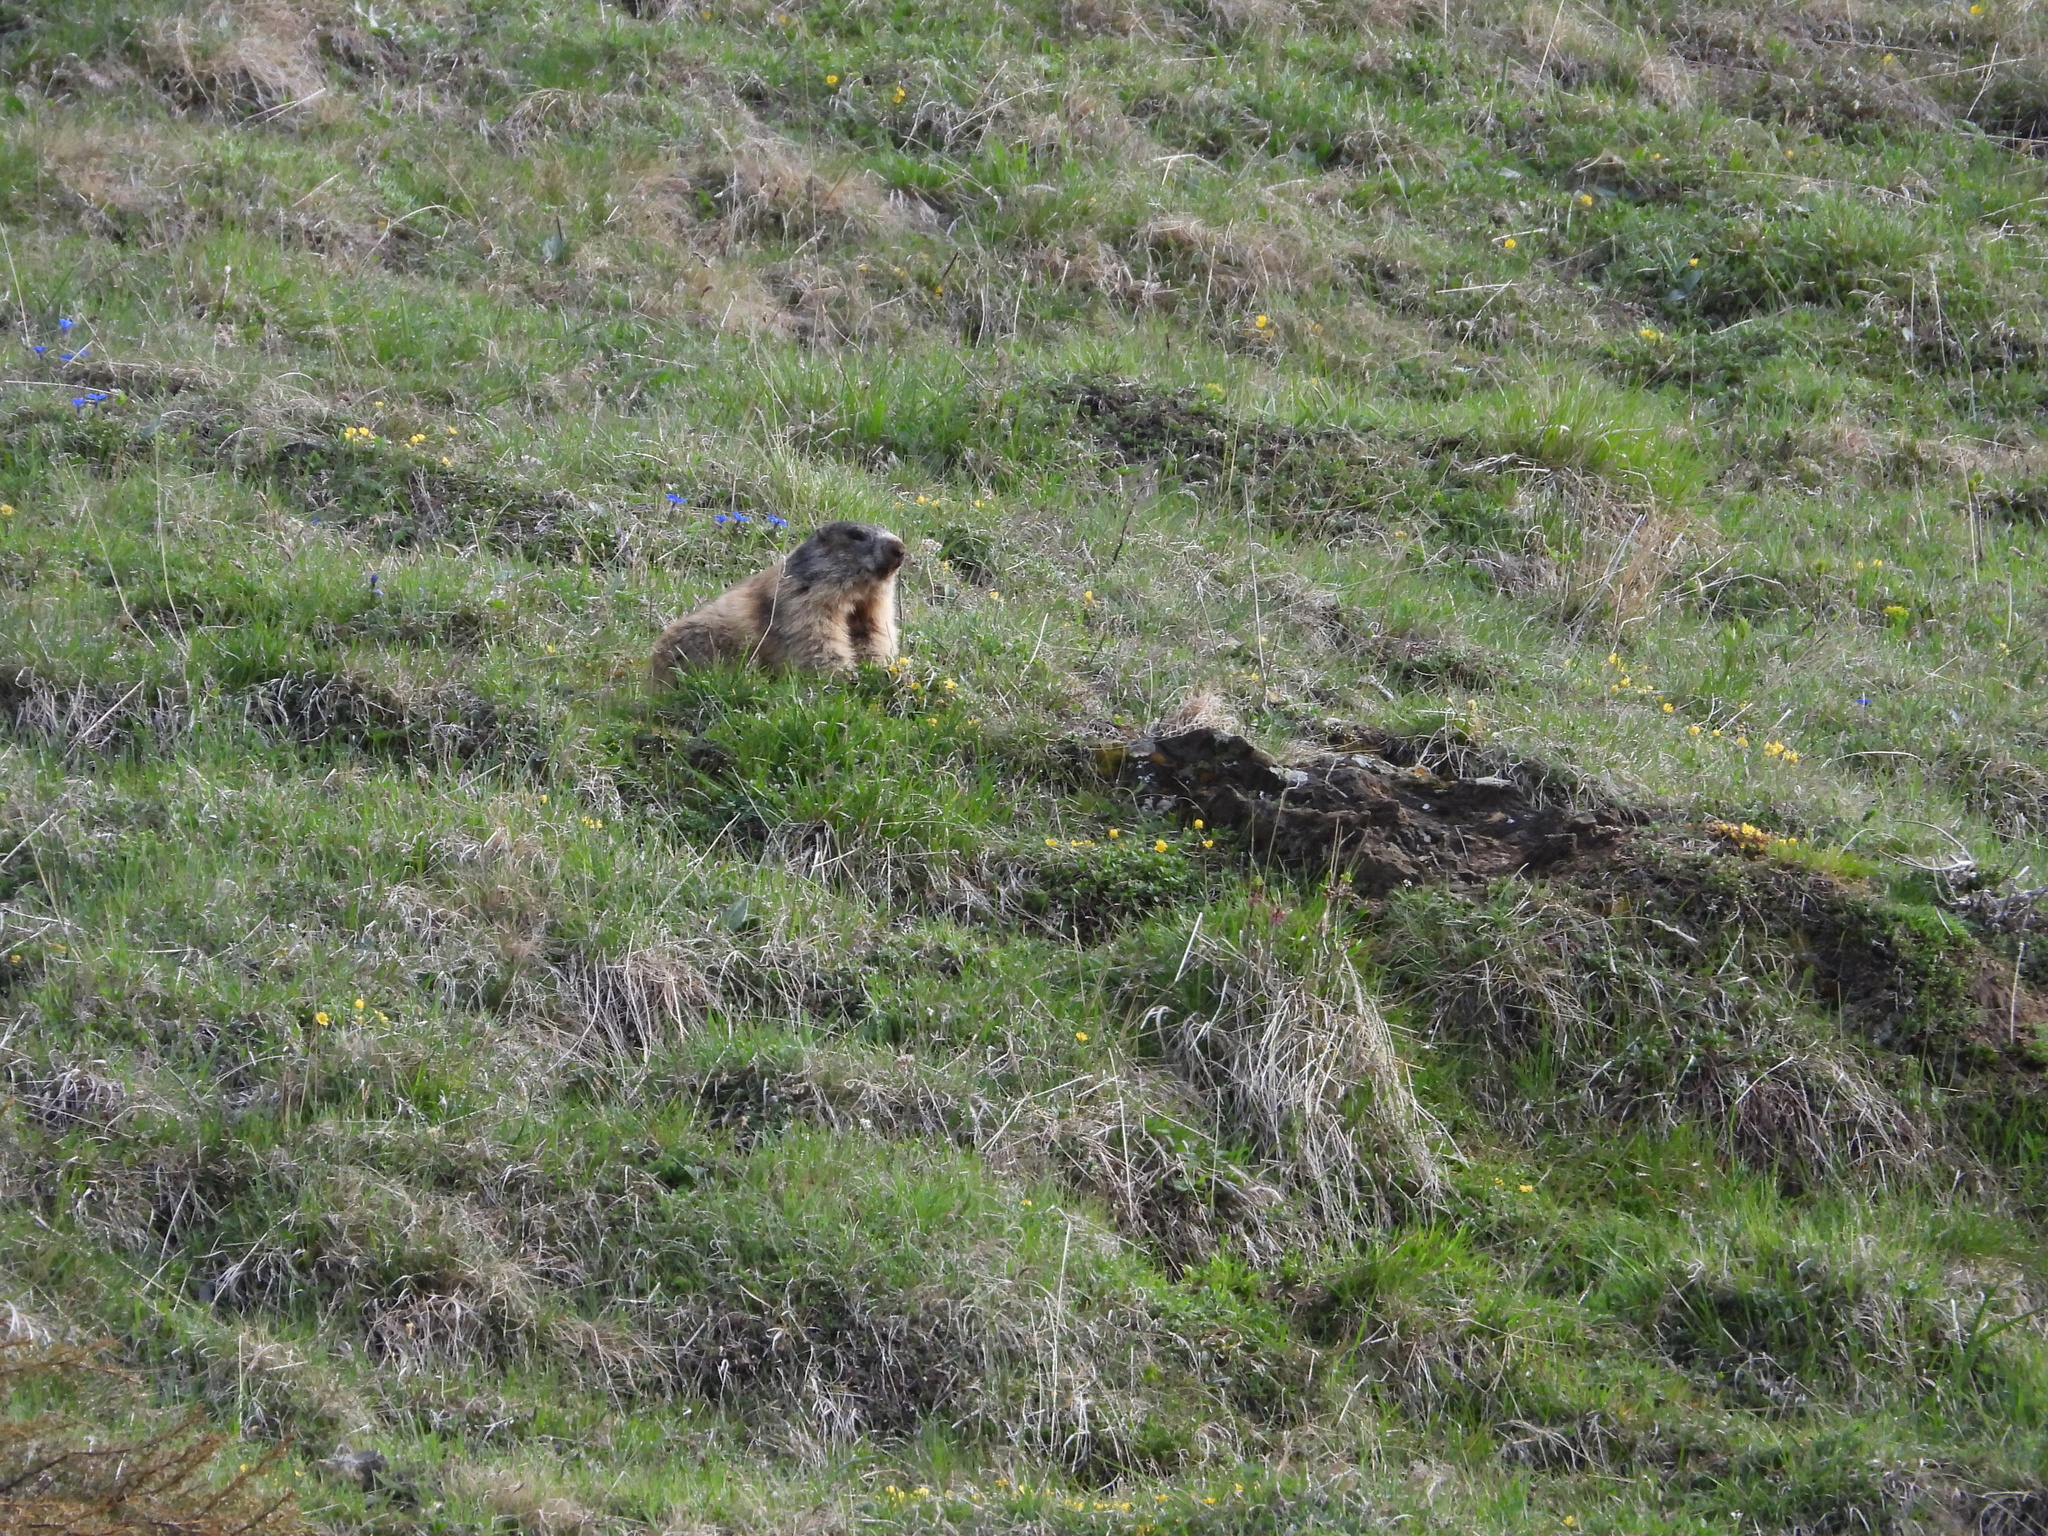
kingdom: Animalia
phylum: Chordata
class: Mammalia
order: Rodentia
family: Sciuridae
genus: Marmota
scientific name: Marmota marmota
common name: Alpine marmot
